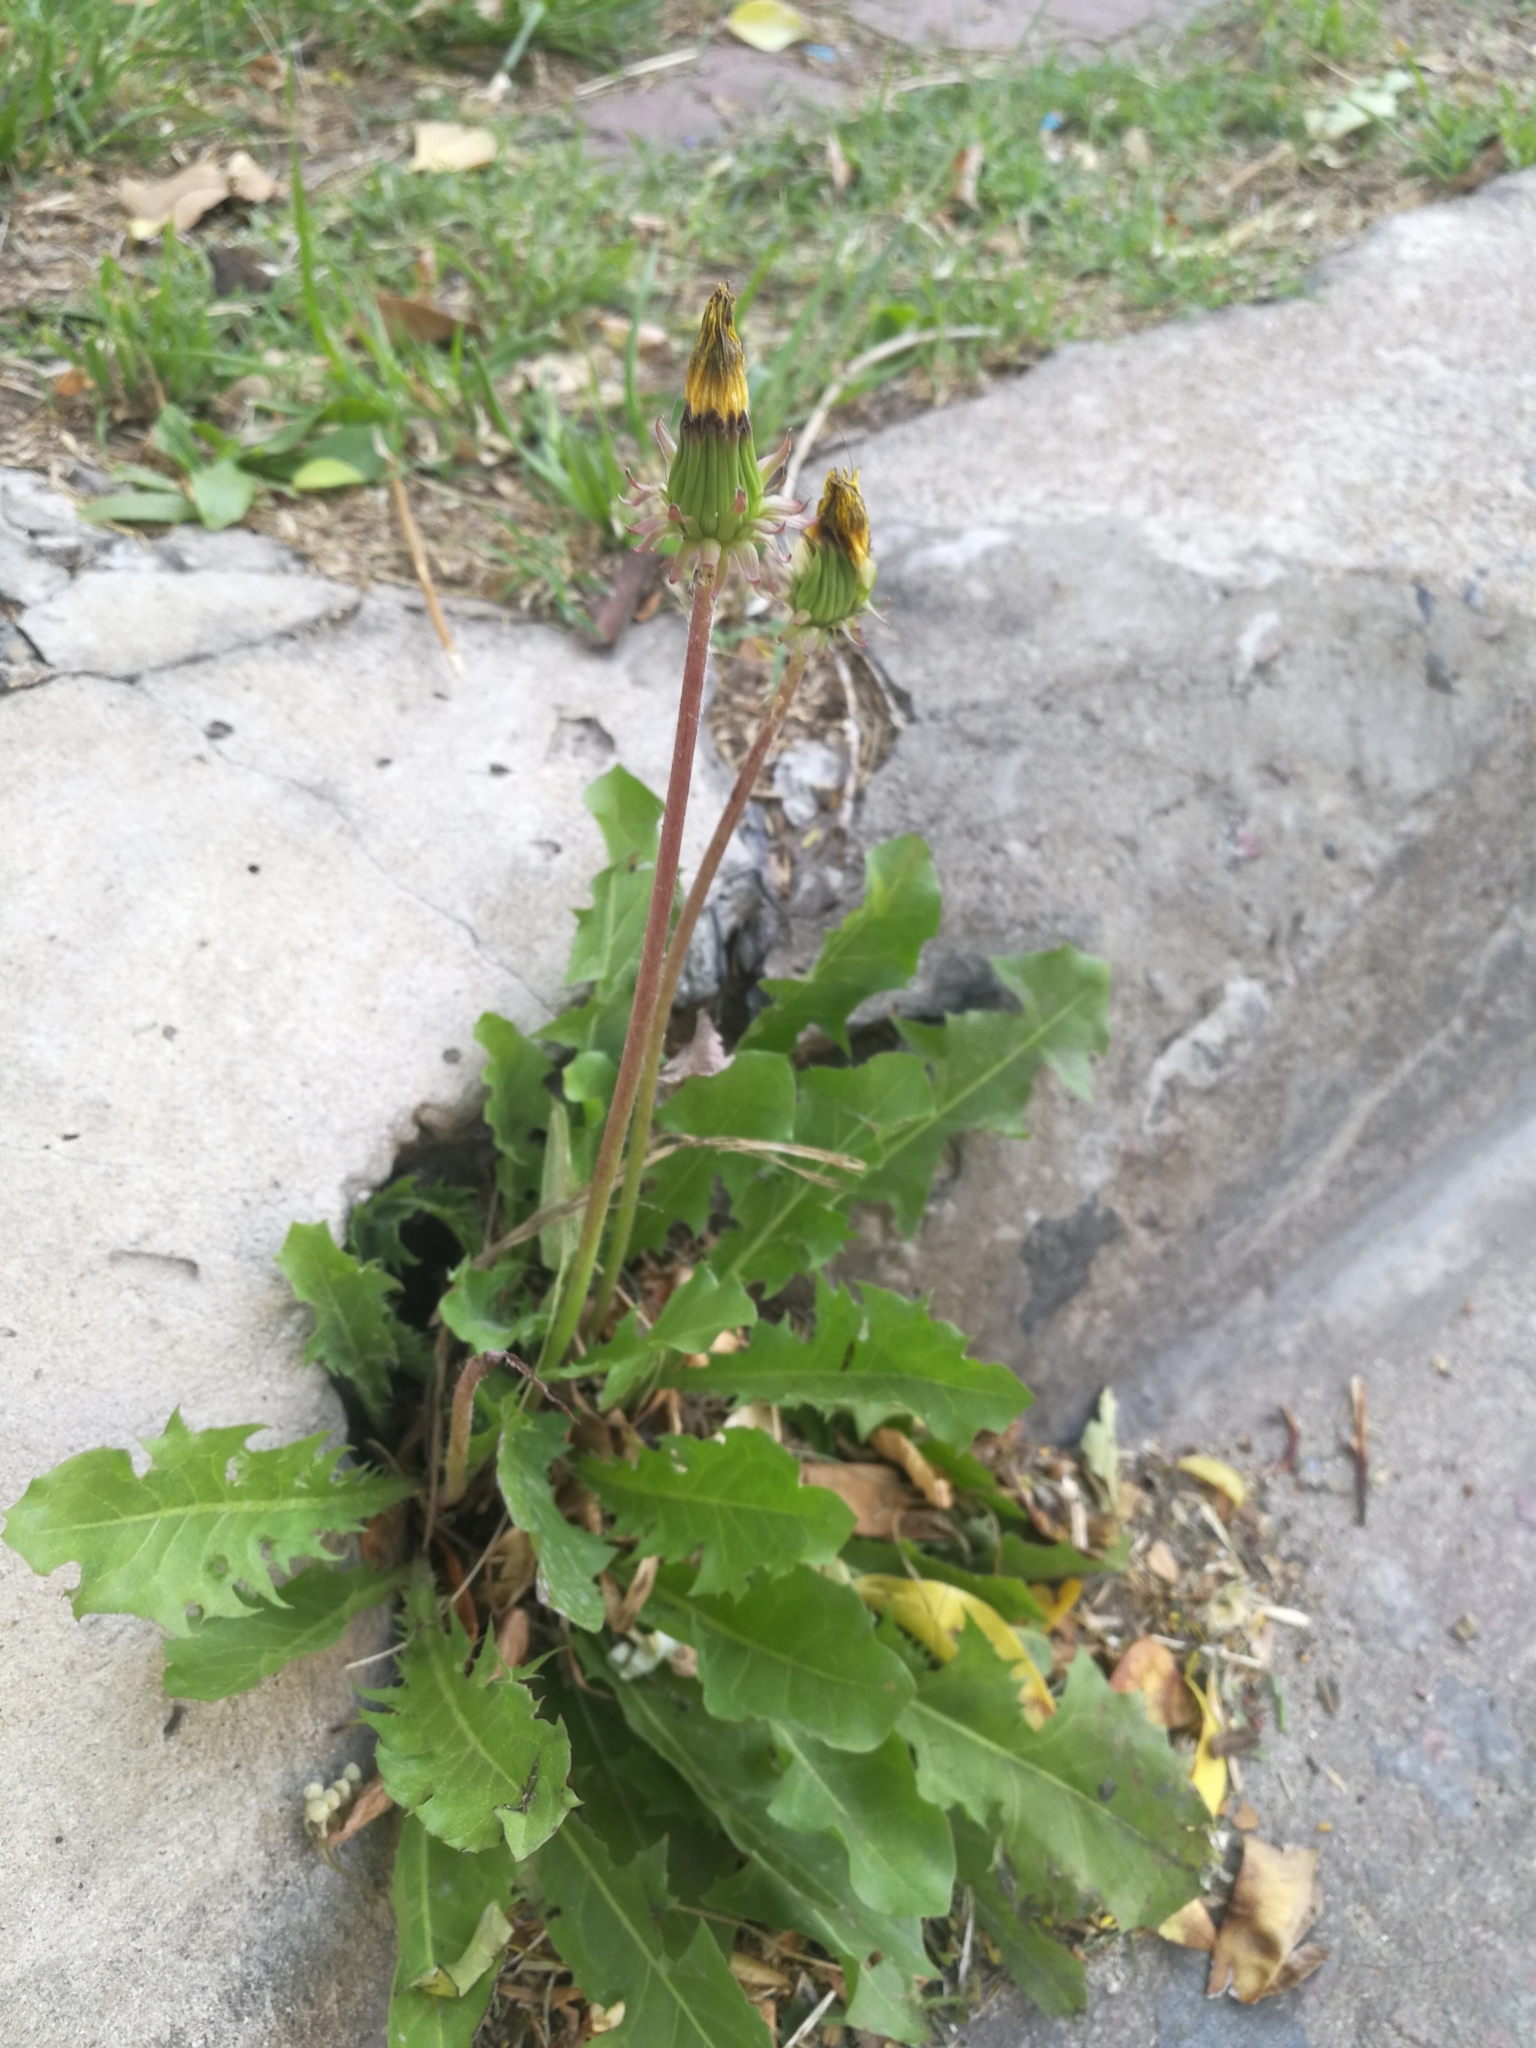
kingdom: Plantae
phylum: Tracheophyta
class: Magnoliopsida
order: Asterales
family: Asteraceae
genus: Taraxacum
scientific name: Taraxacum officinale
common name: Common dandelion
